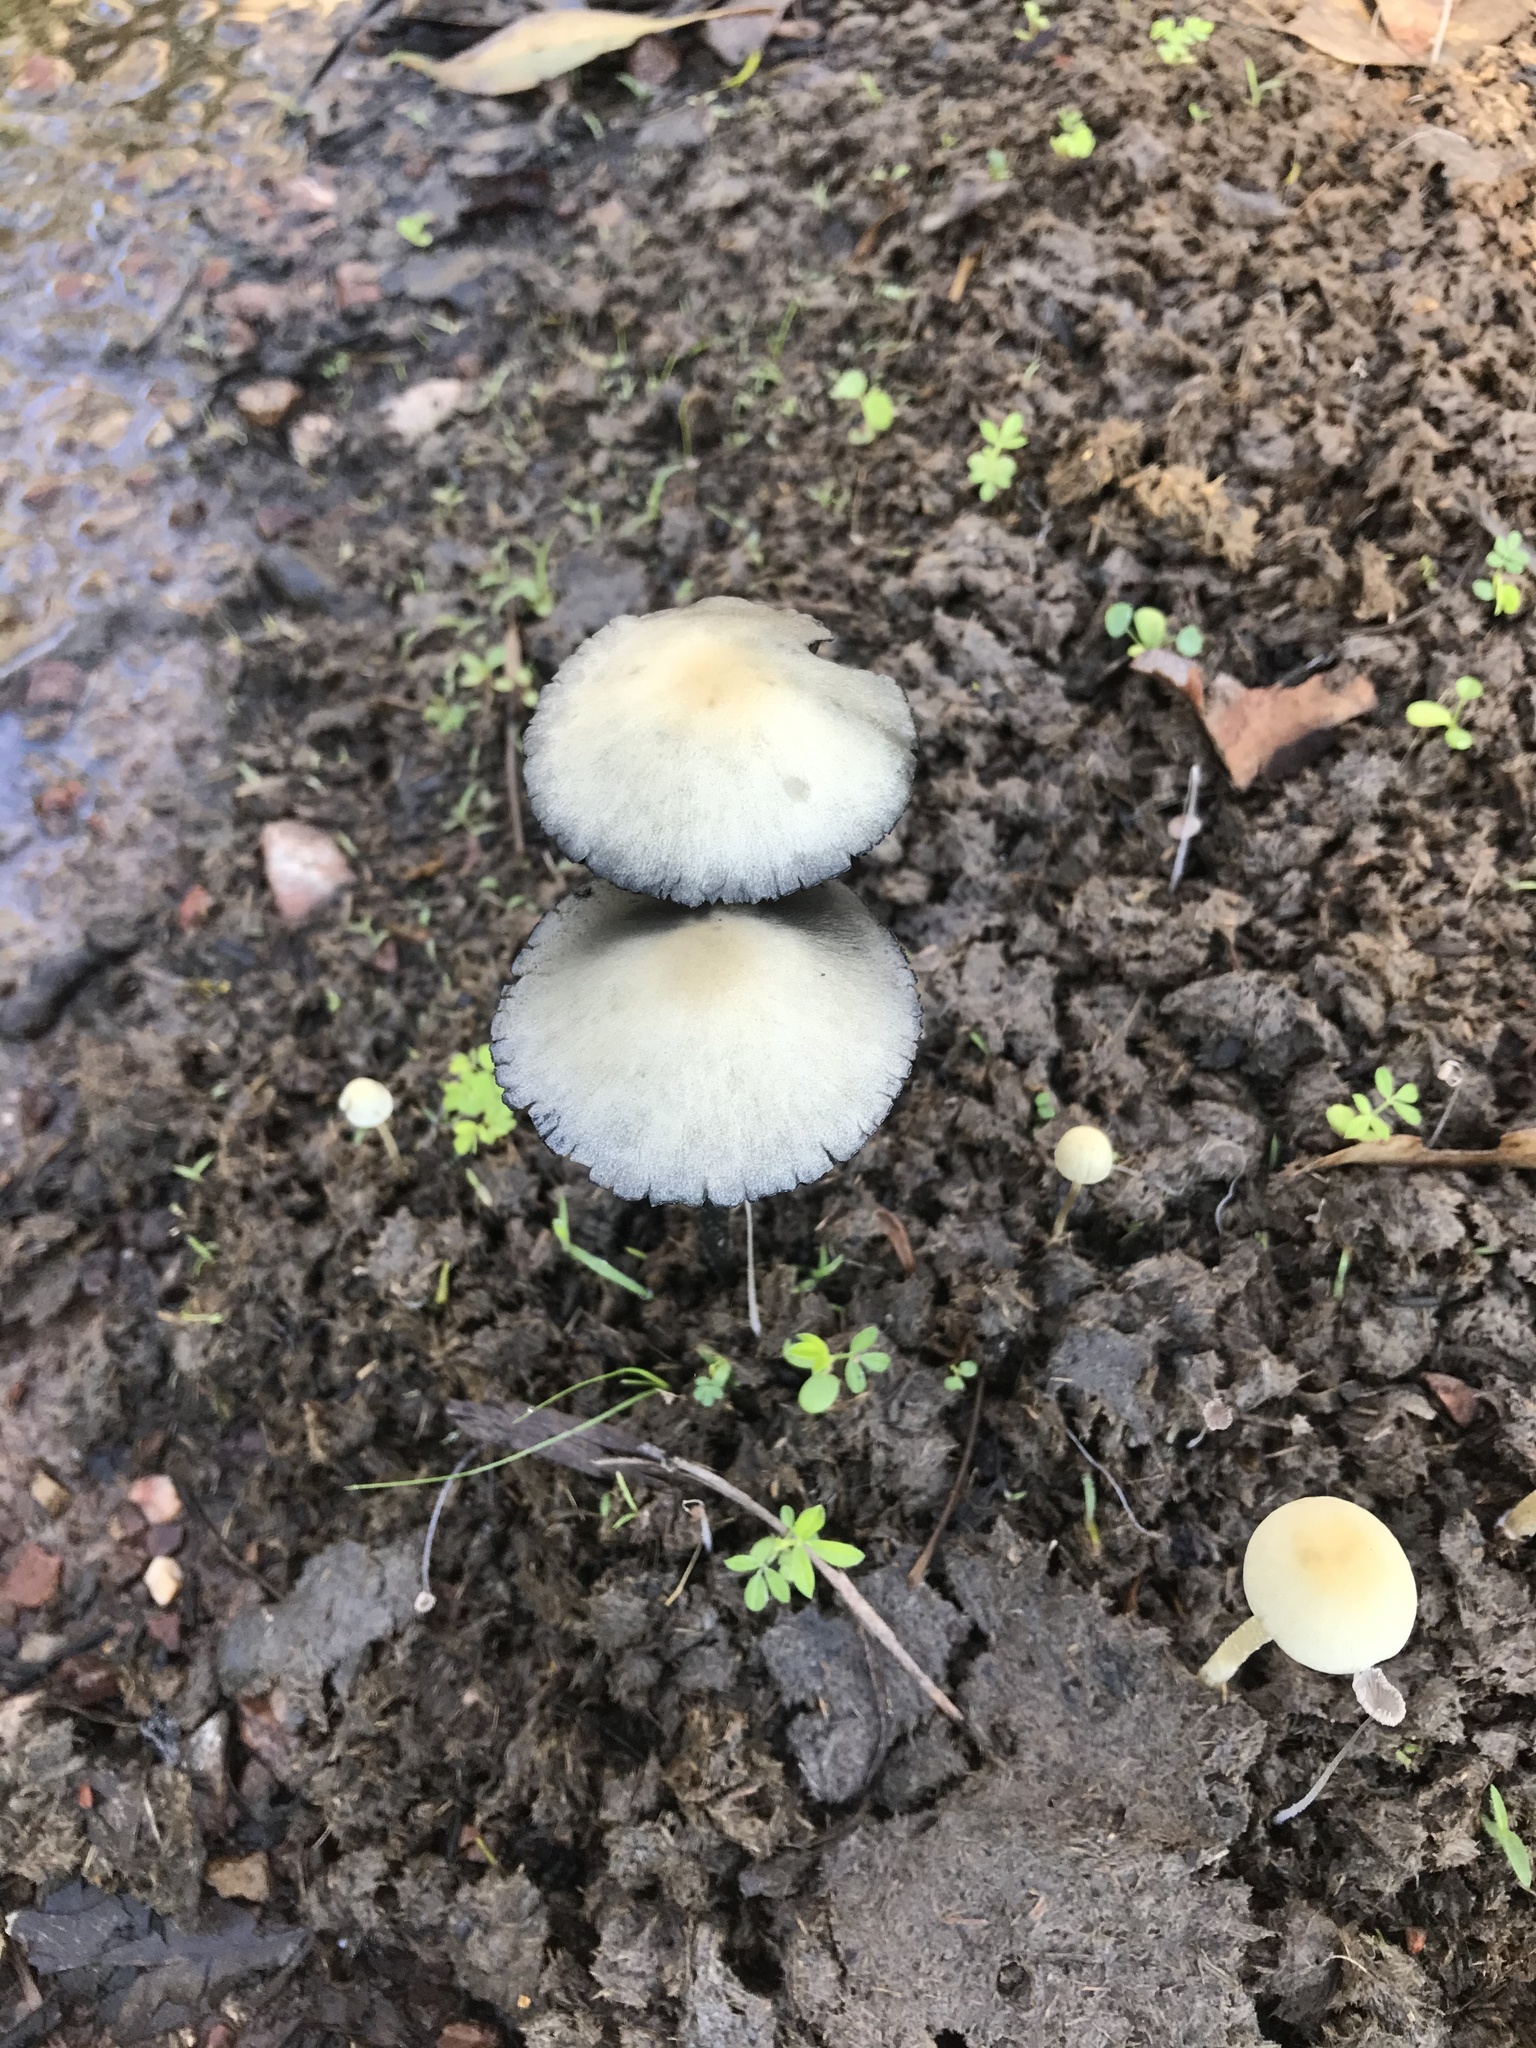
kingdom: Fungi
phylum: Basidiomycota
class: Agaricomycetes
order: Agaricales
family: Bolbitiaceae
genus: Panaeolus
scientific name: Panaeolus cyanescens
